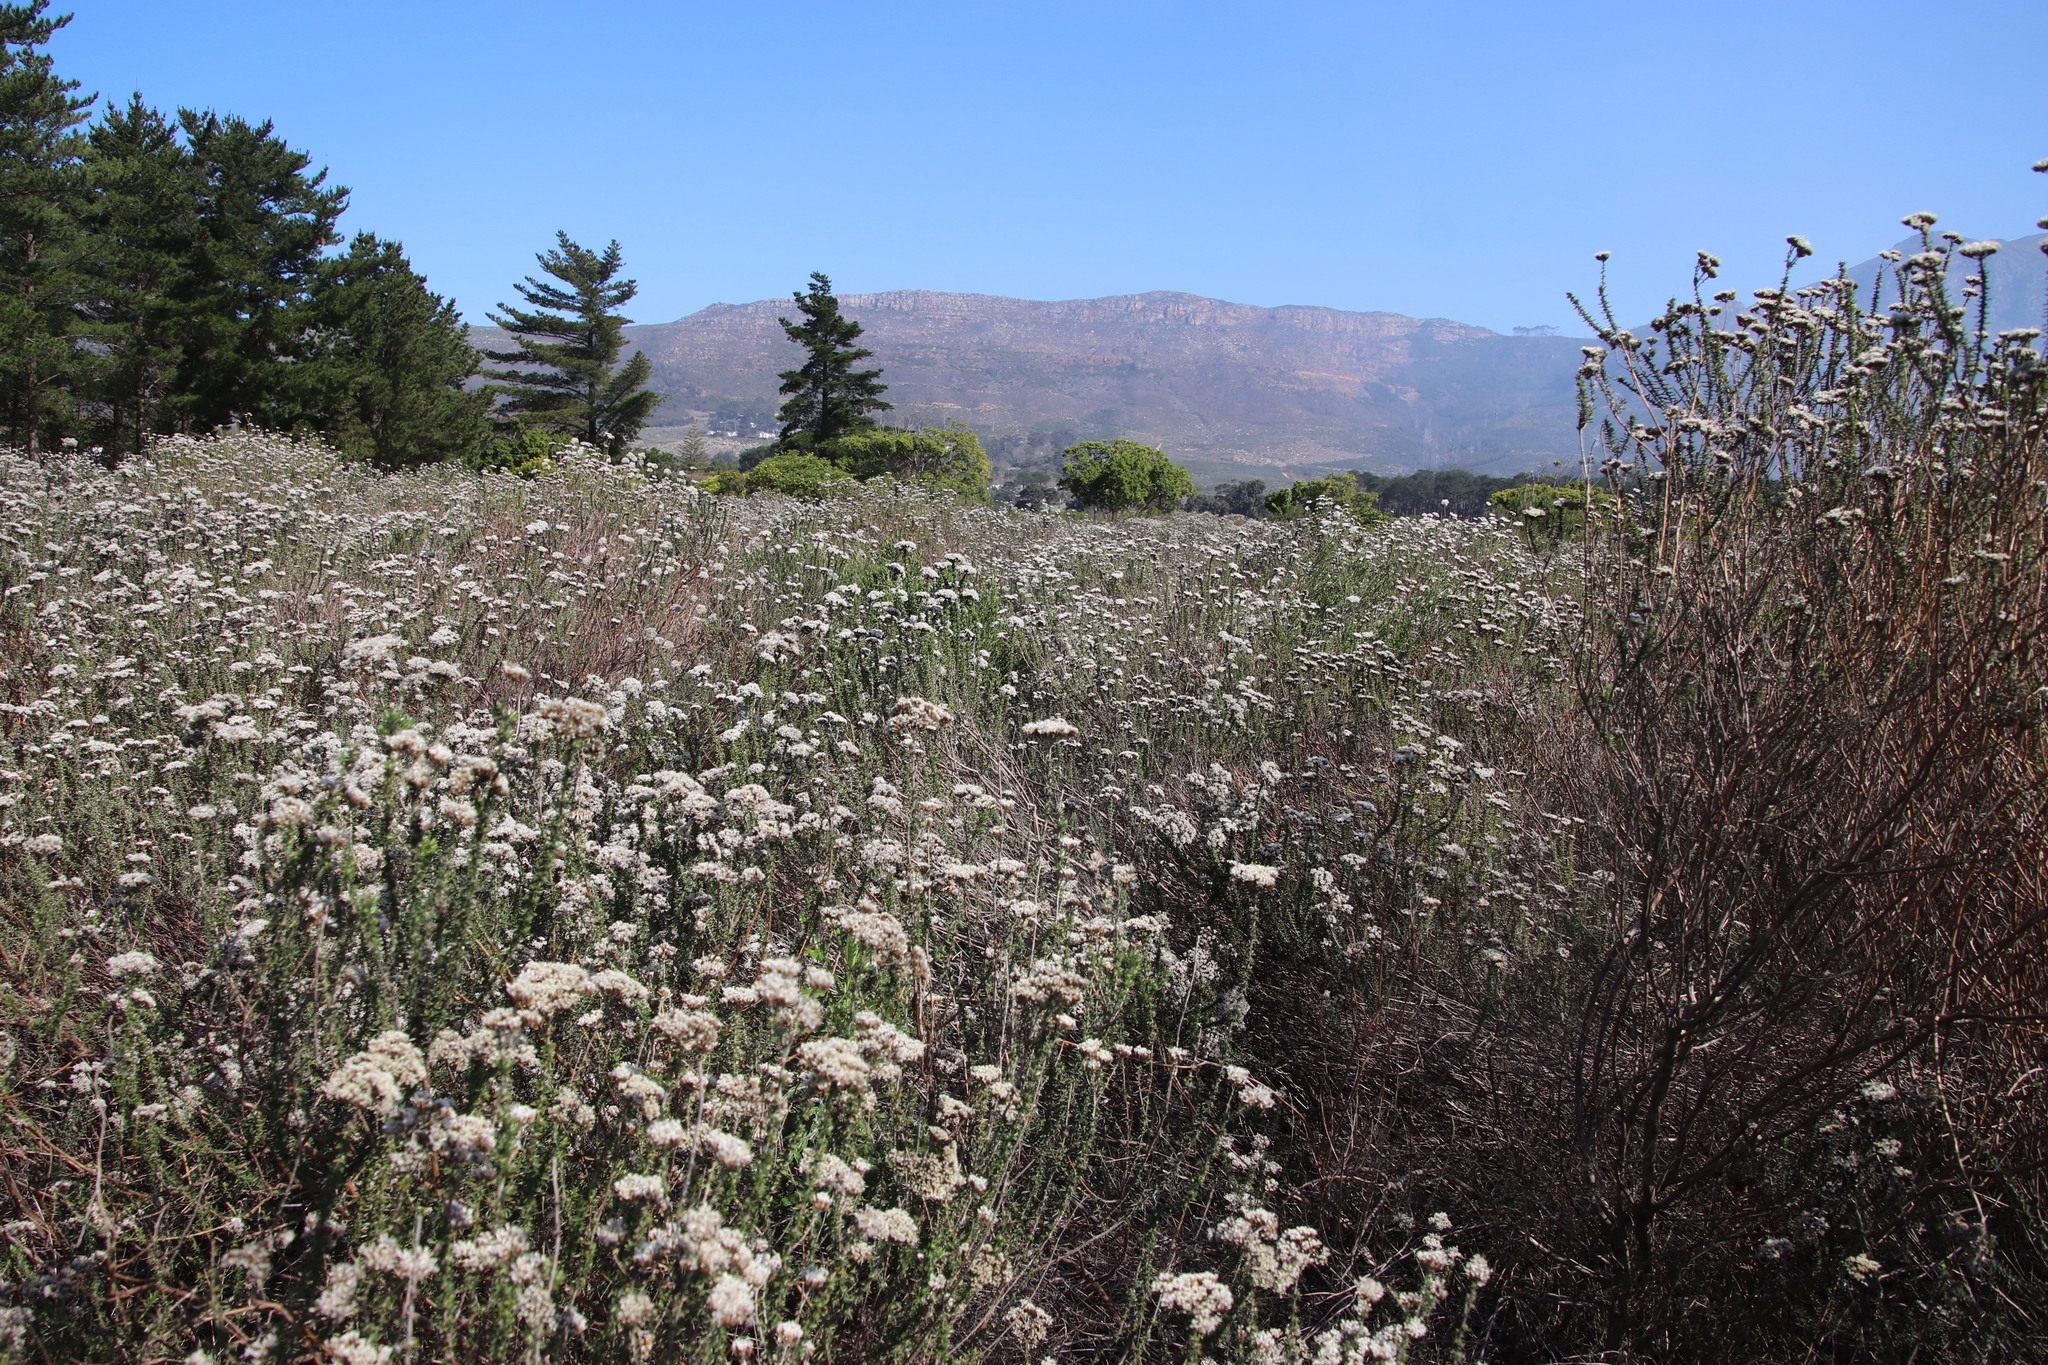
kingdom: Plantae
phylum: Tracheophyta
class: Magnoliopsida
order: Asterales
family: Asteraceae
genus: Metalasia
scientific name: Metalasia densa
